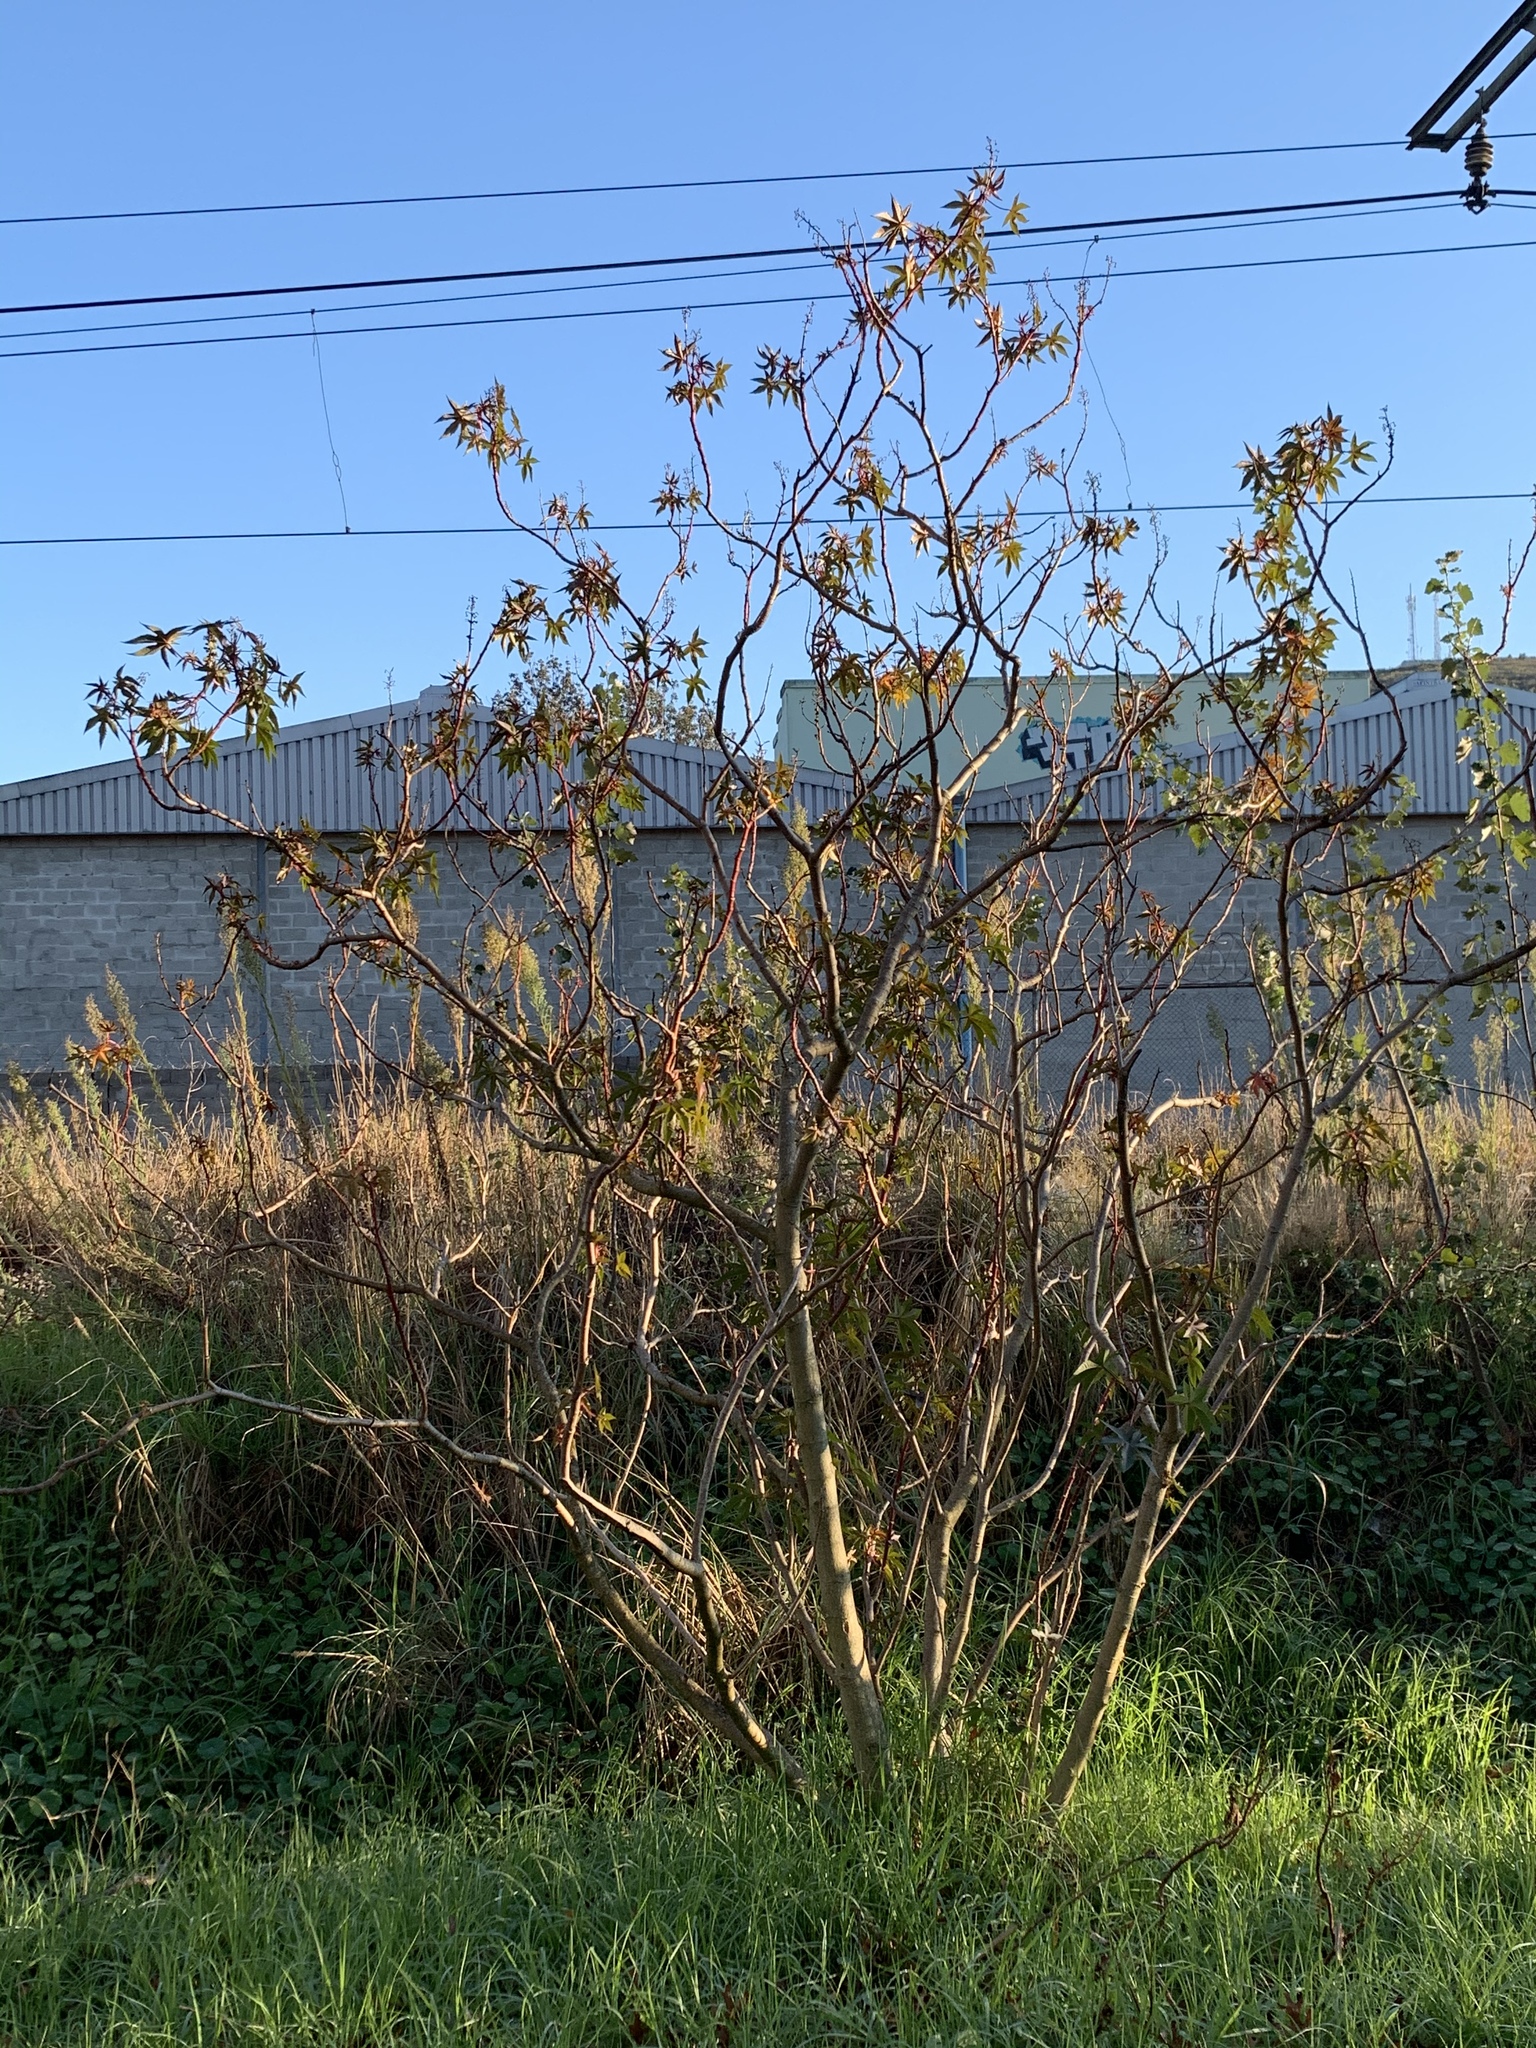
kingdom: Plantae
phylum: Tracheophyta
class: Magnoliopsida
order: Malpighiales
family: Euphorbiaceae
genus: Ricinus
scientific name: Ricinus communis
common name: Castor-oil-plant
